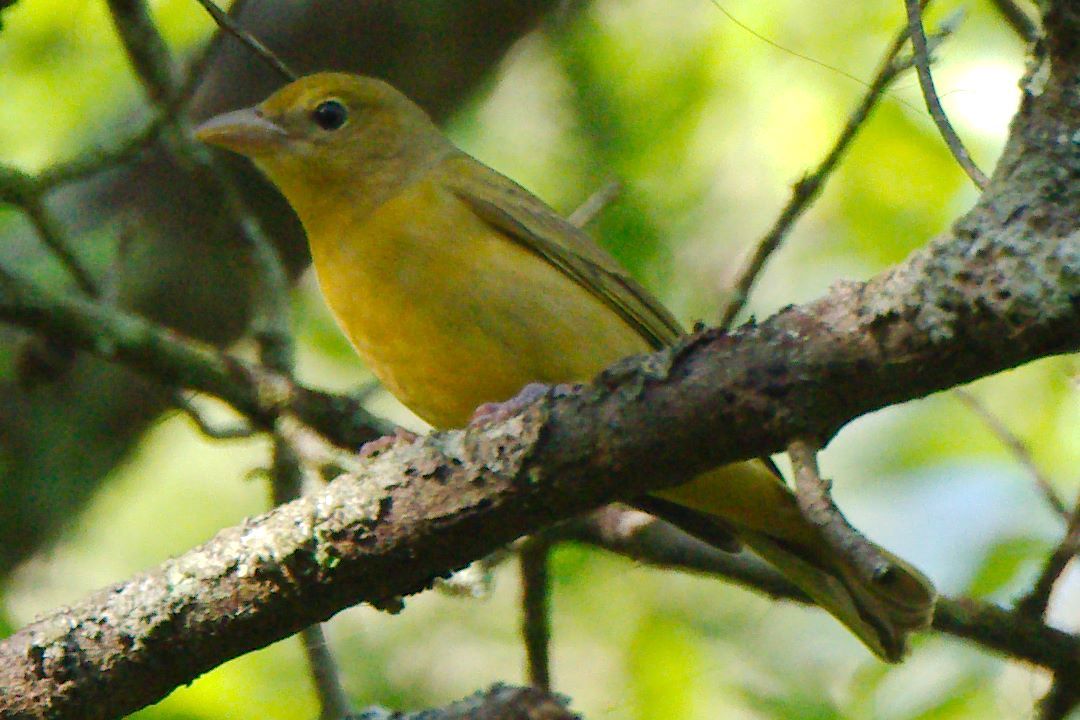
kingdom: Animalia
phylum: Chordata
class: Aves
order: Passeriformes
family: Cardinalidae
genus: Piranga
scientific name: Piranga rubra
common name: Summer tanager
